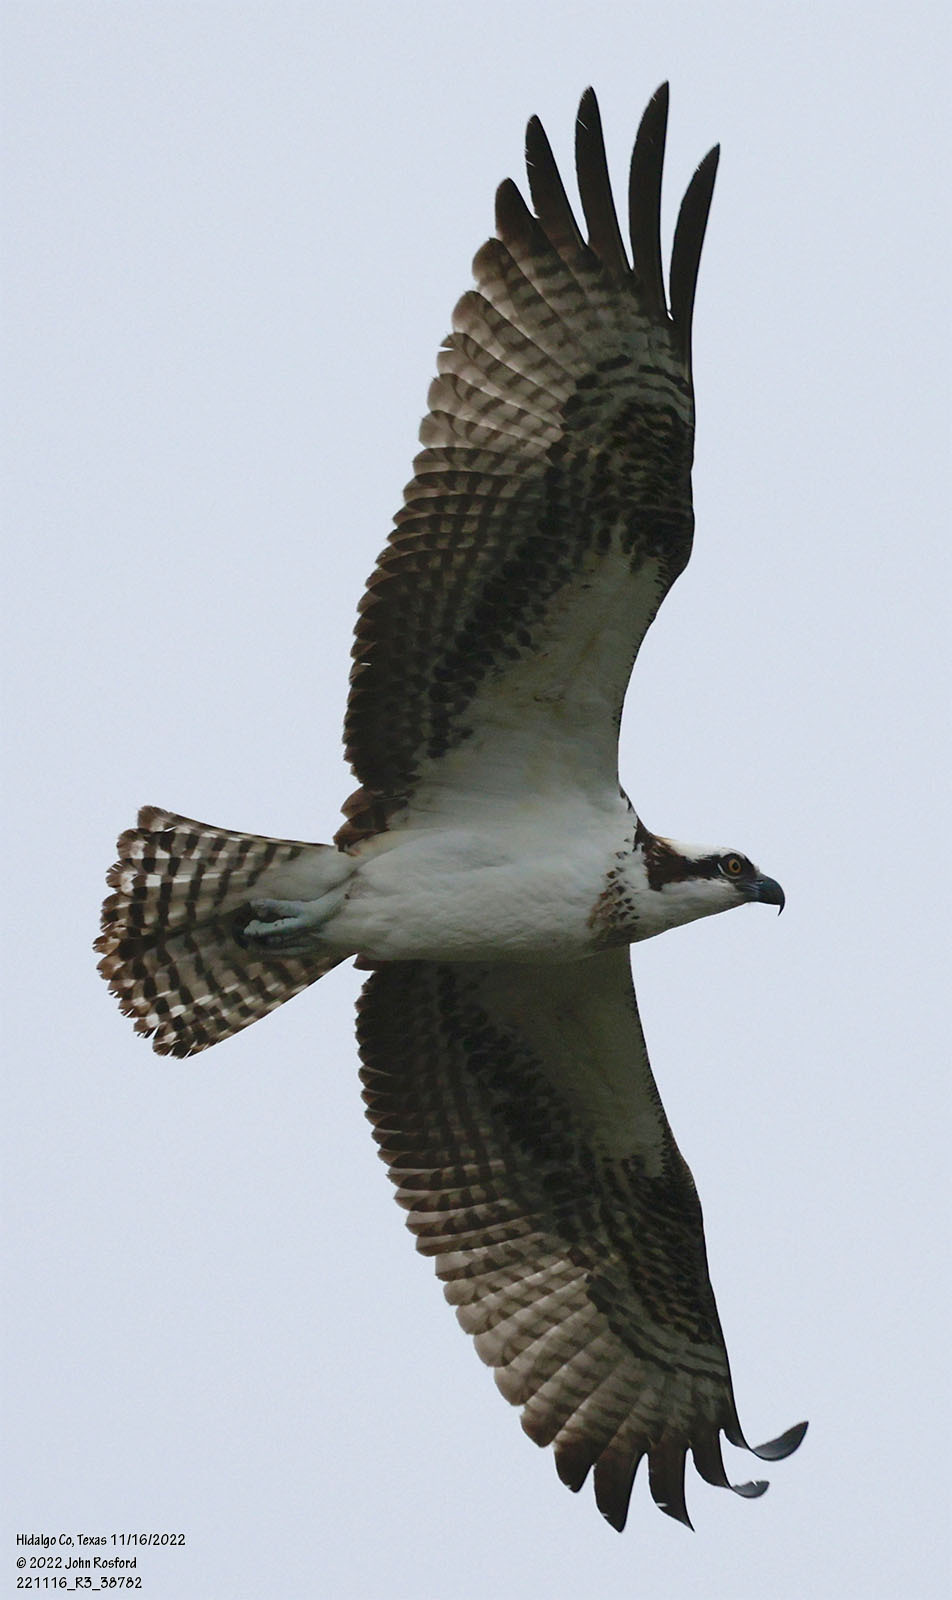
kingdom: Animalia
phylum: Chordata
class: Aves
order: Accipitriformes
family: Pandionidae
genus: Pandion
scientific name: Pandion haliaetus
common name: Osprey
